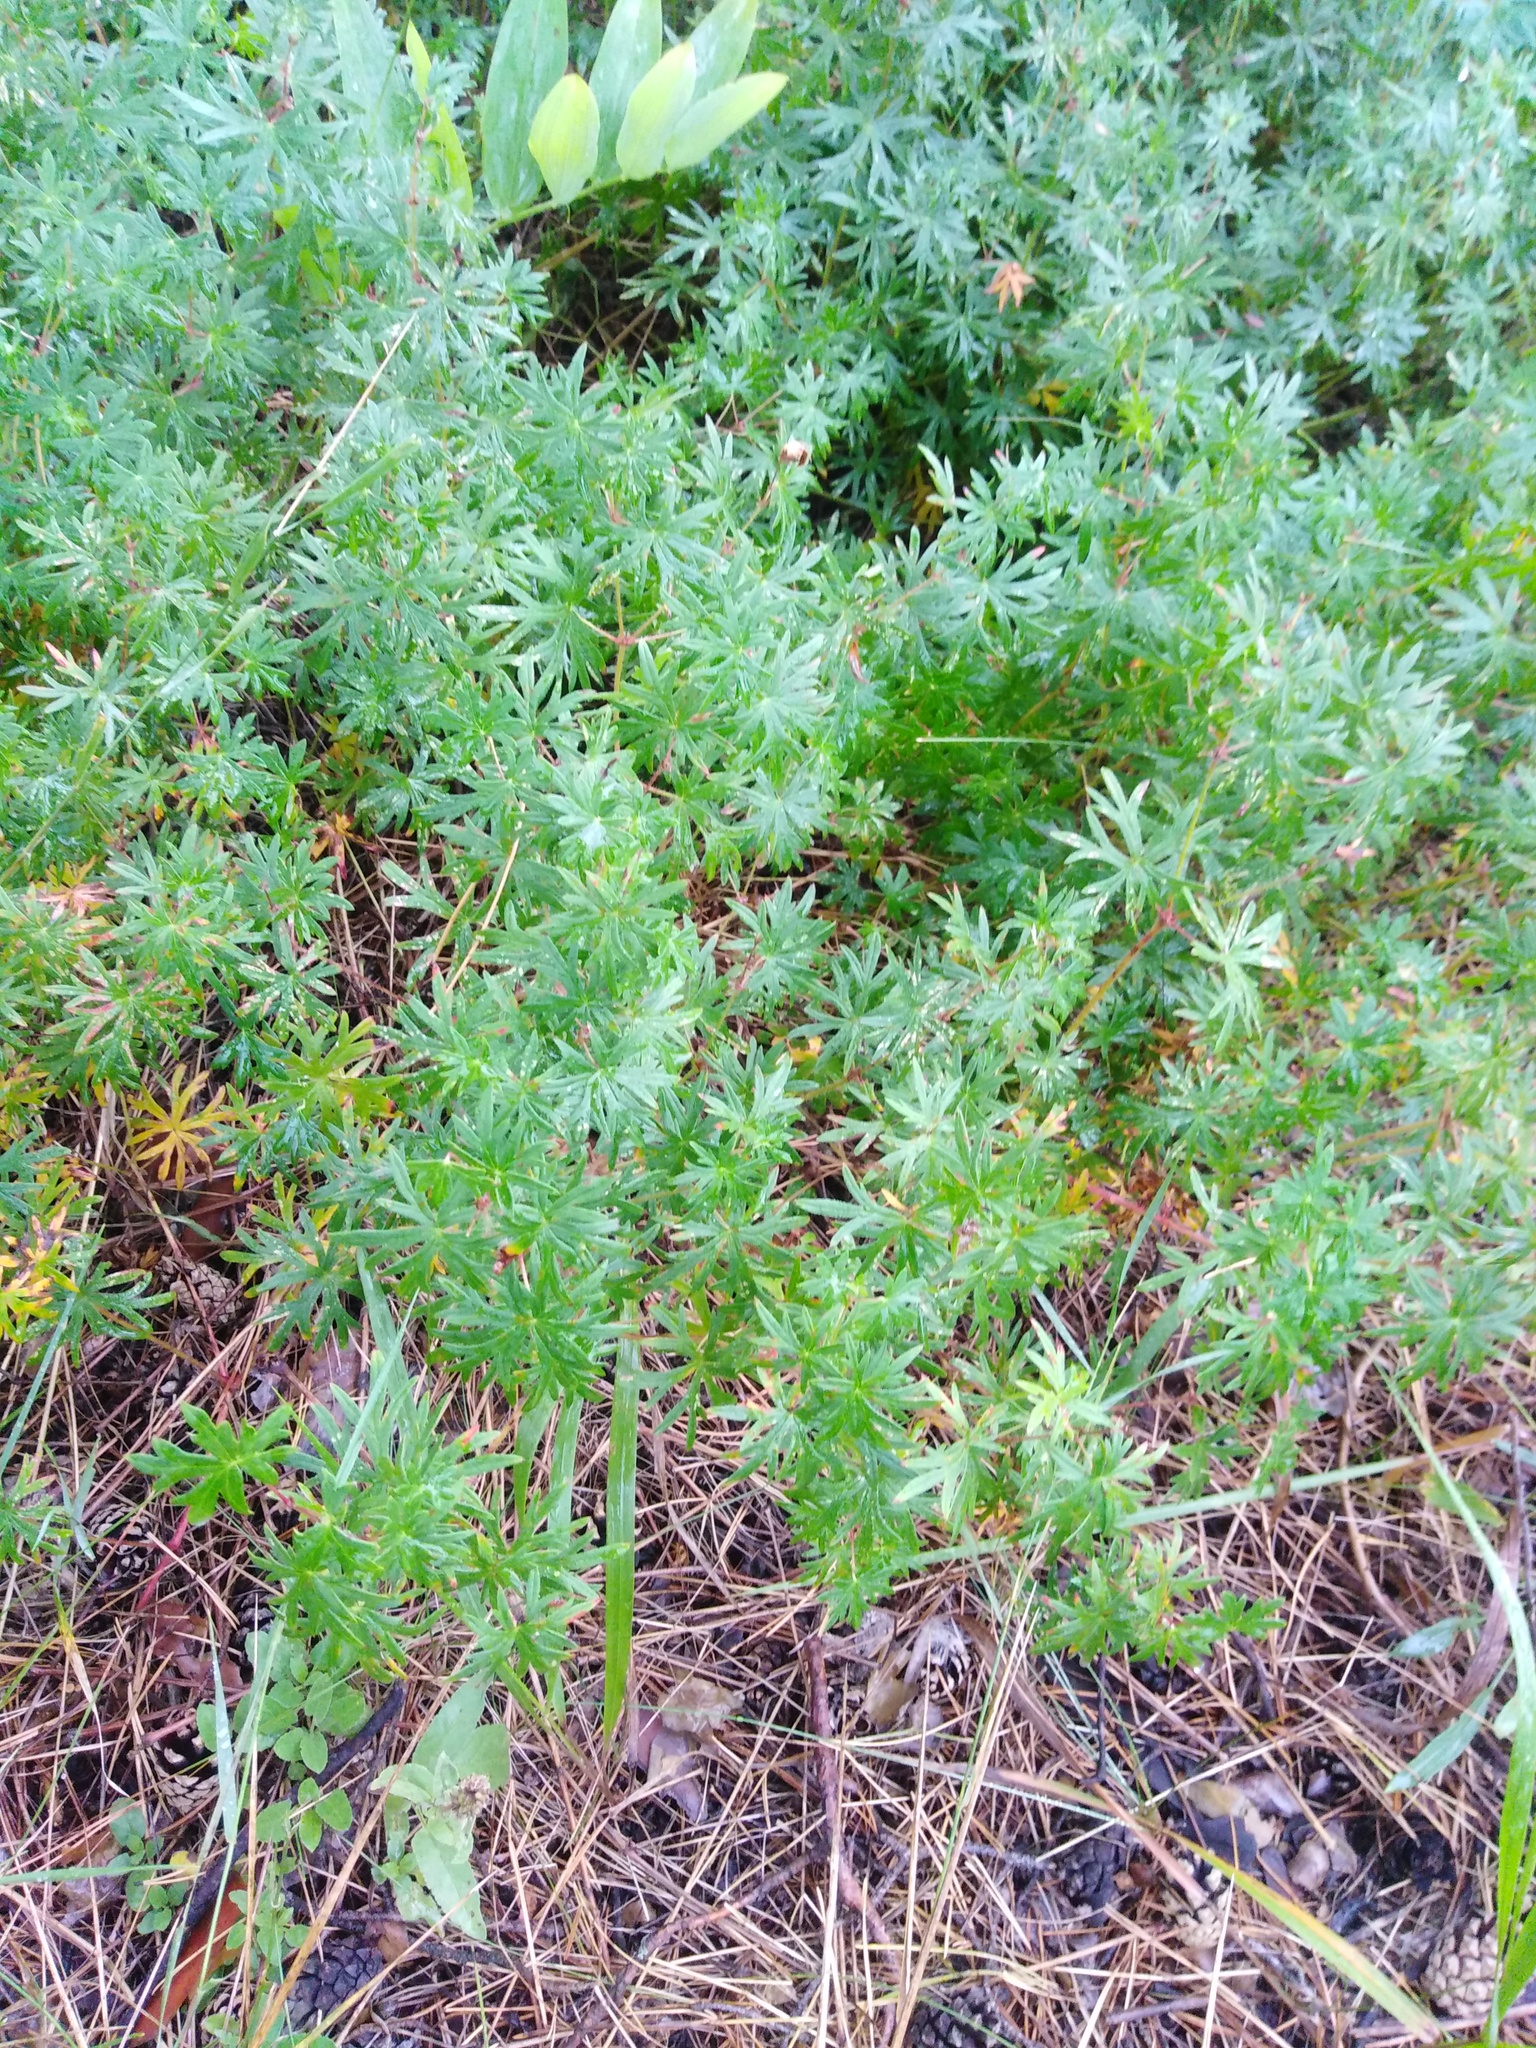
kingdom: Plantae
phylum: Tracheophyta
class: Magnoliopsida
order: Geraniales
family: Geraniaceae
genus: Geranium
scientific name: Geranium sanguineum
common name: Bloody crane's-bill
